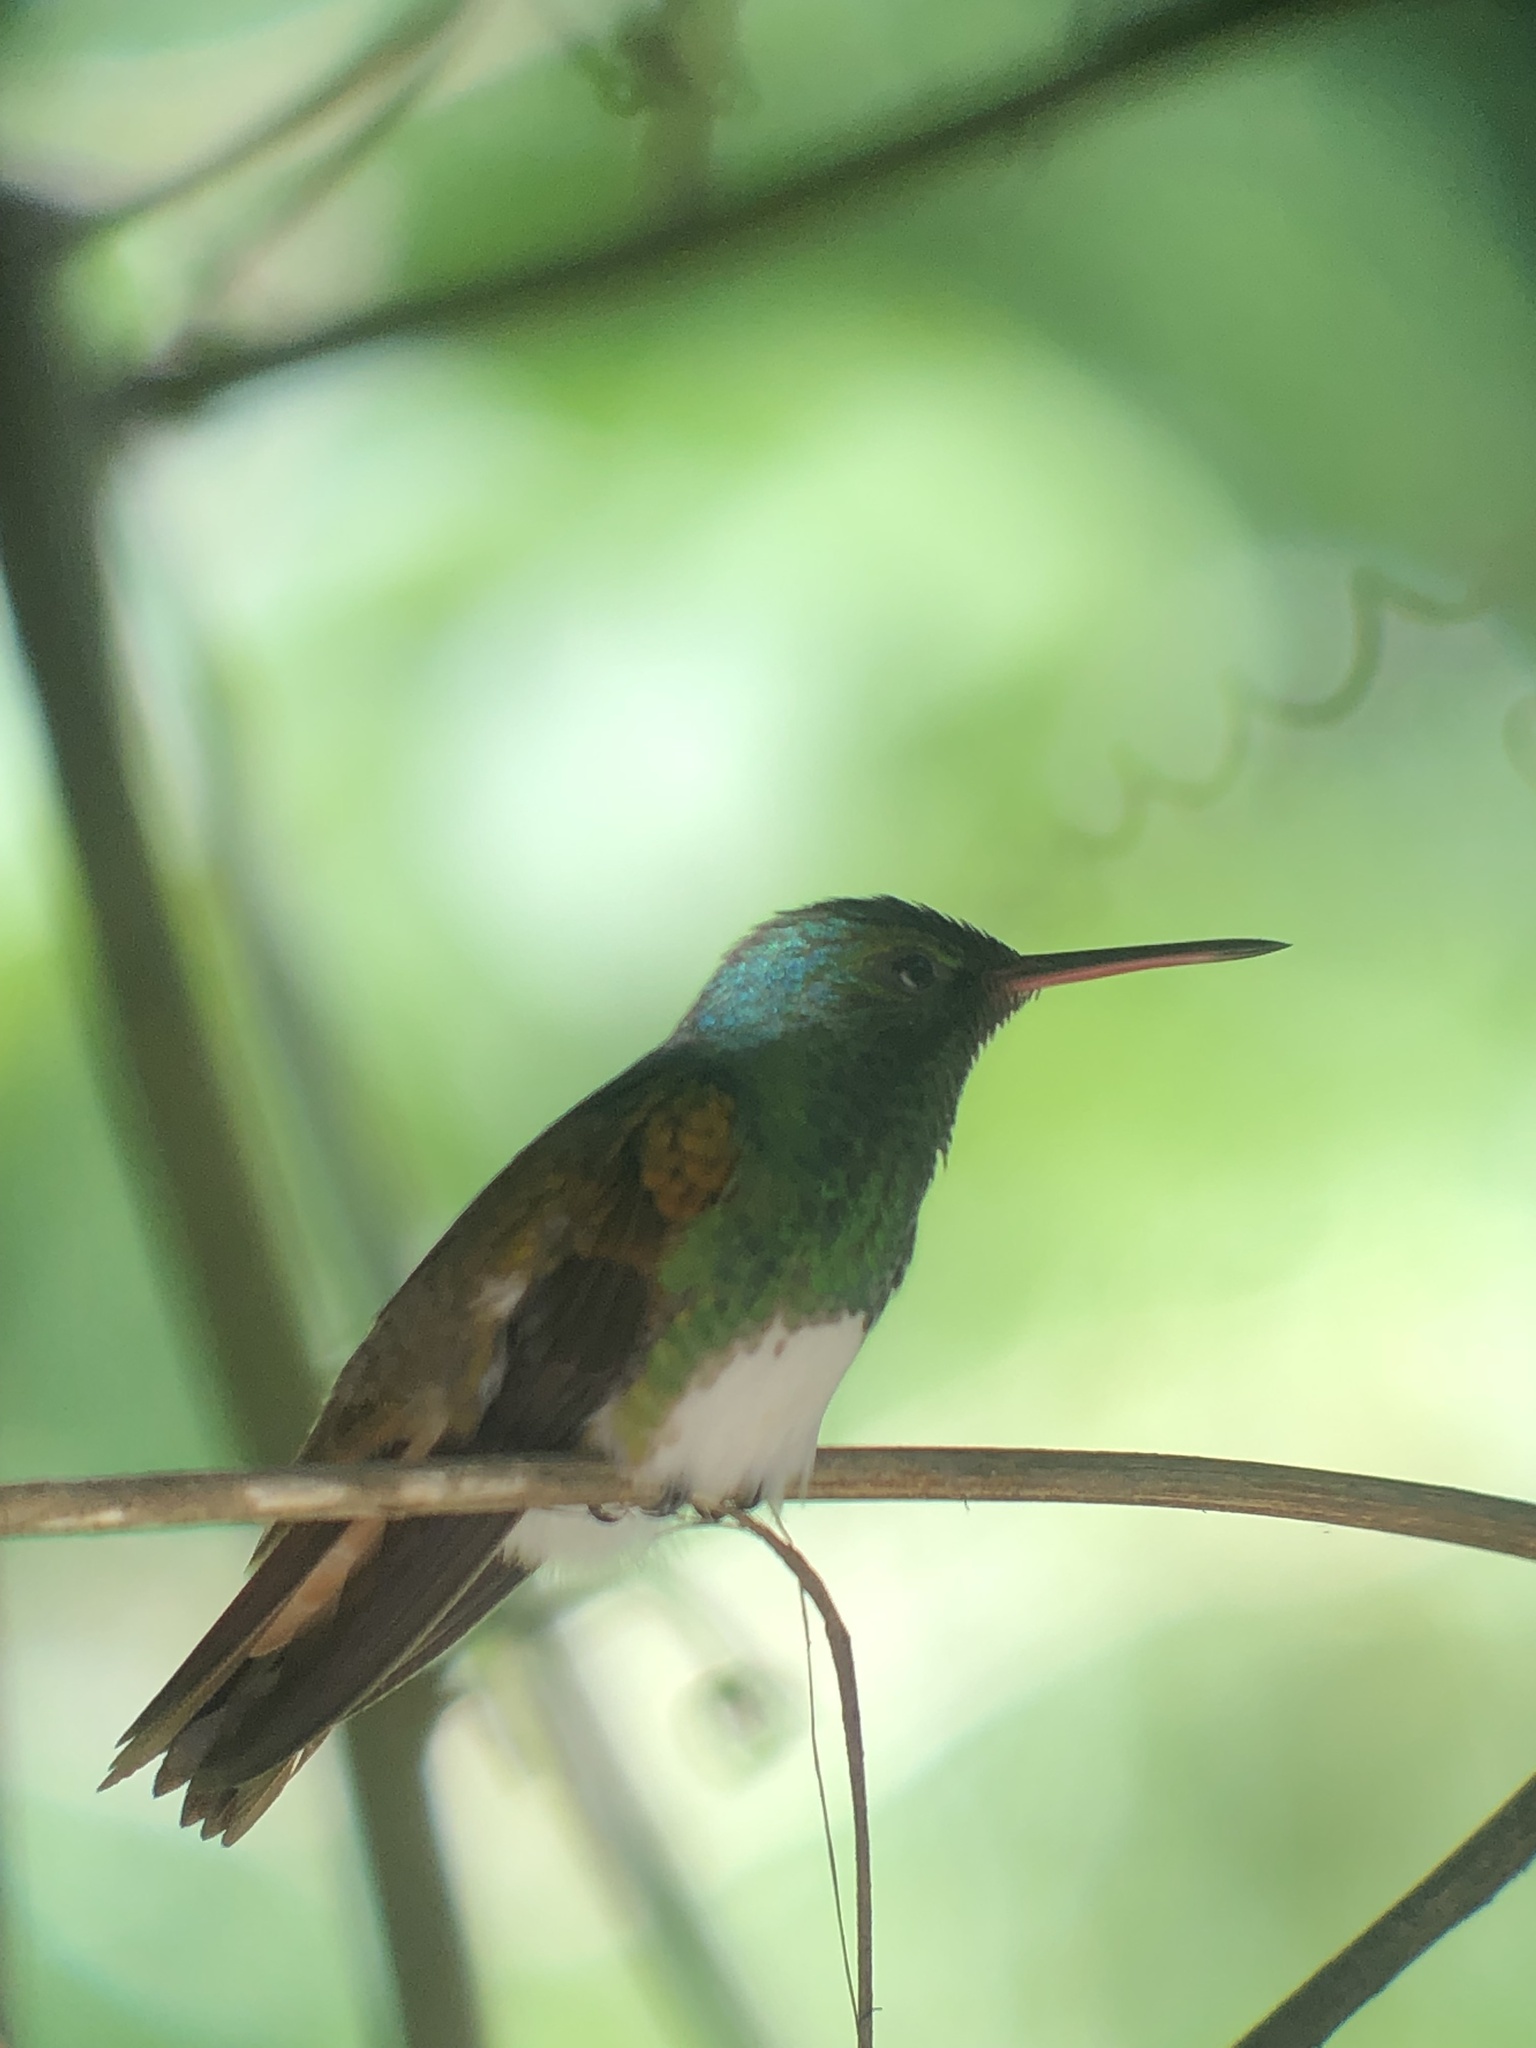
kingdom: Animalia
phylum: Chordata
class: Aves
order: Apodiformes
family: Trochilidae
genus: Saucerottia
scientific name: Saucerottia edward
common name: Snowy-bellied hummingbird
